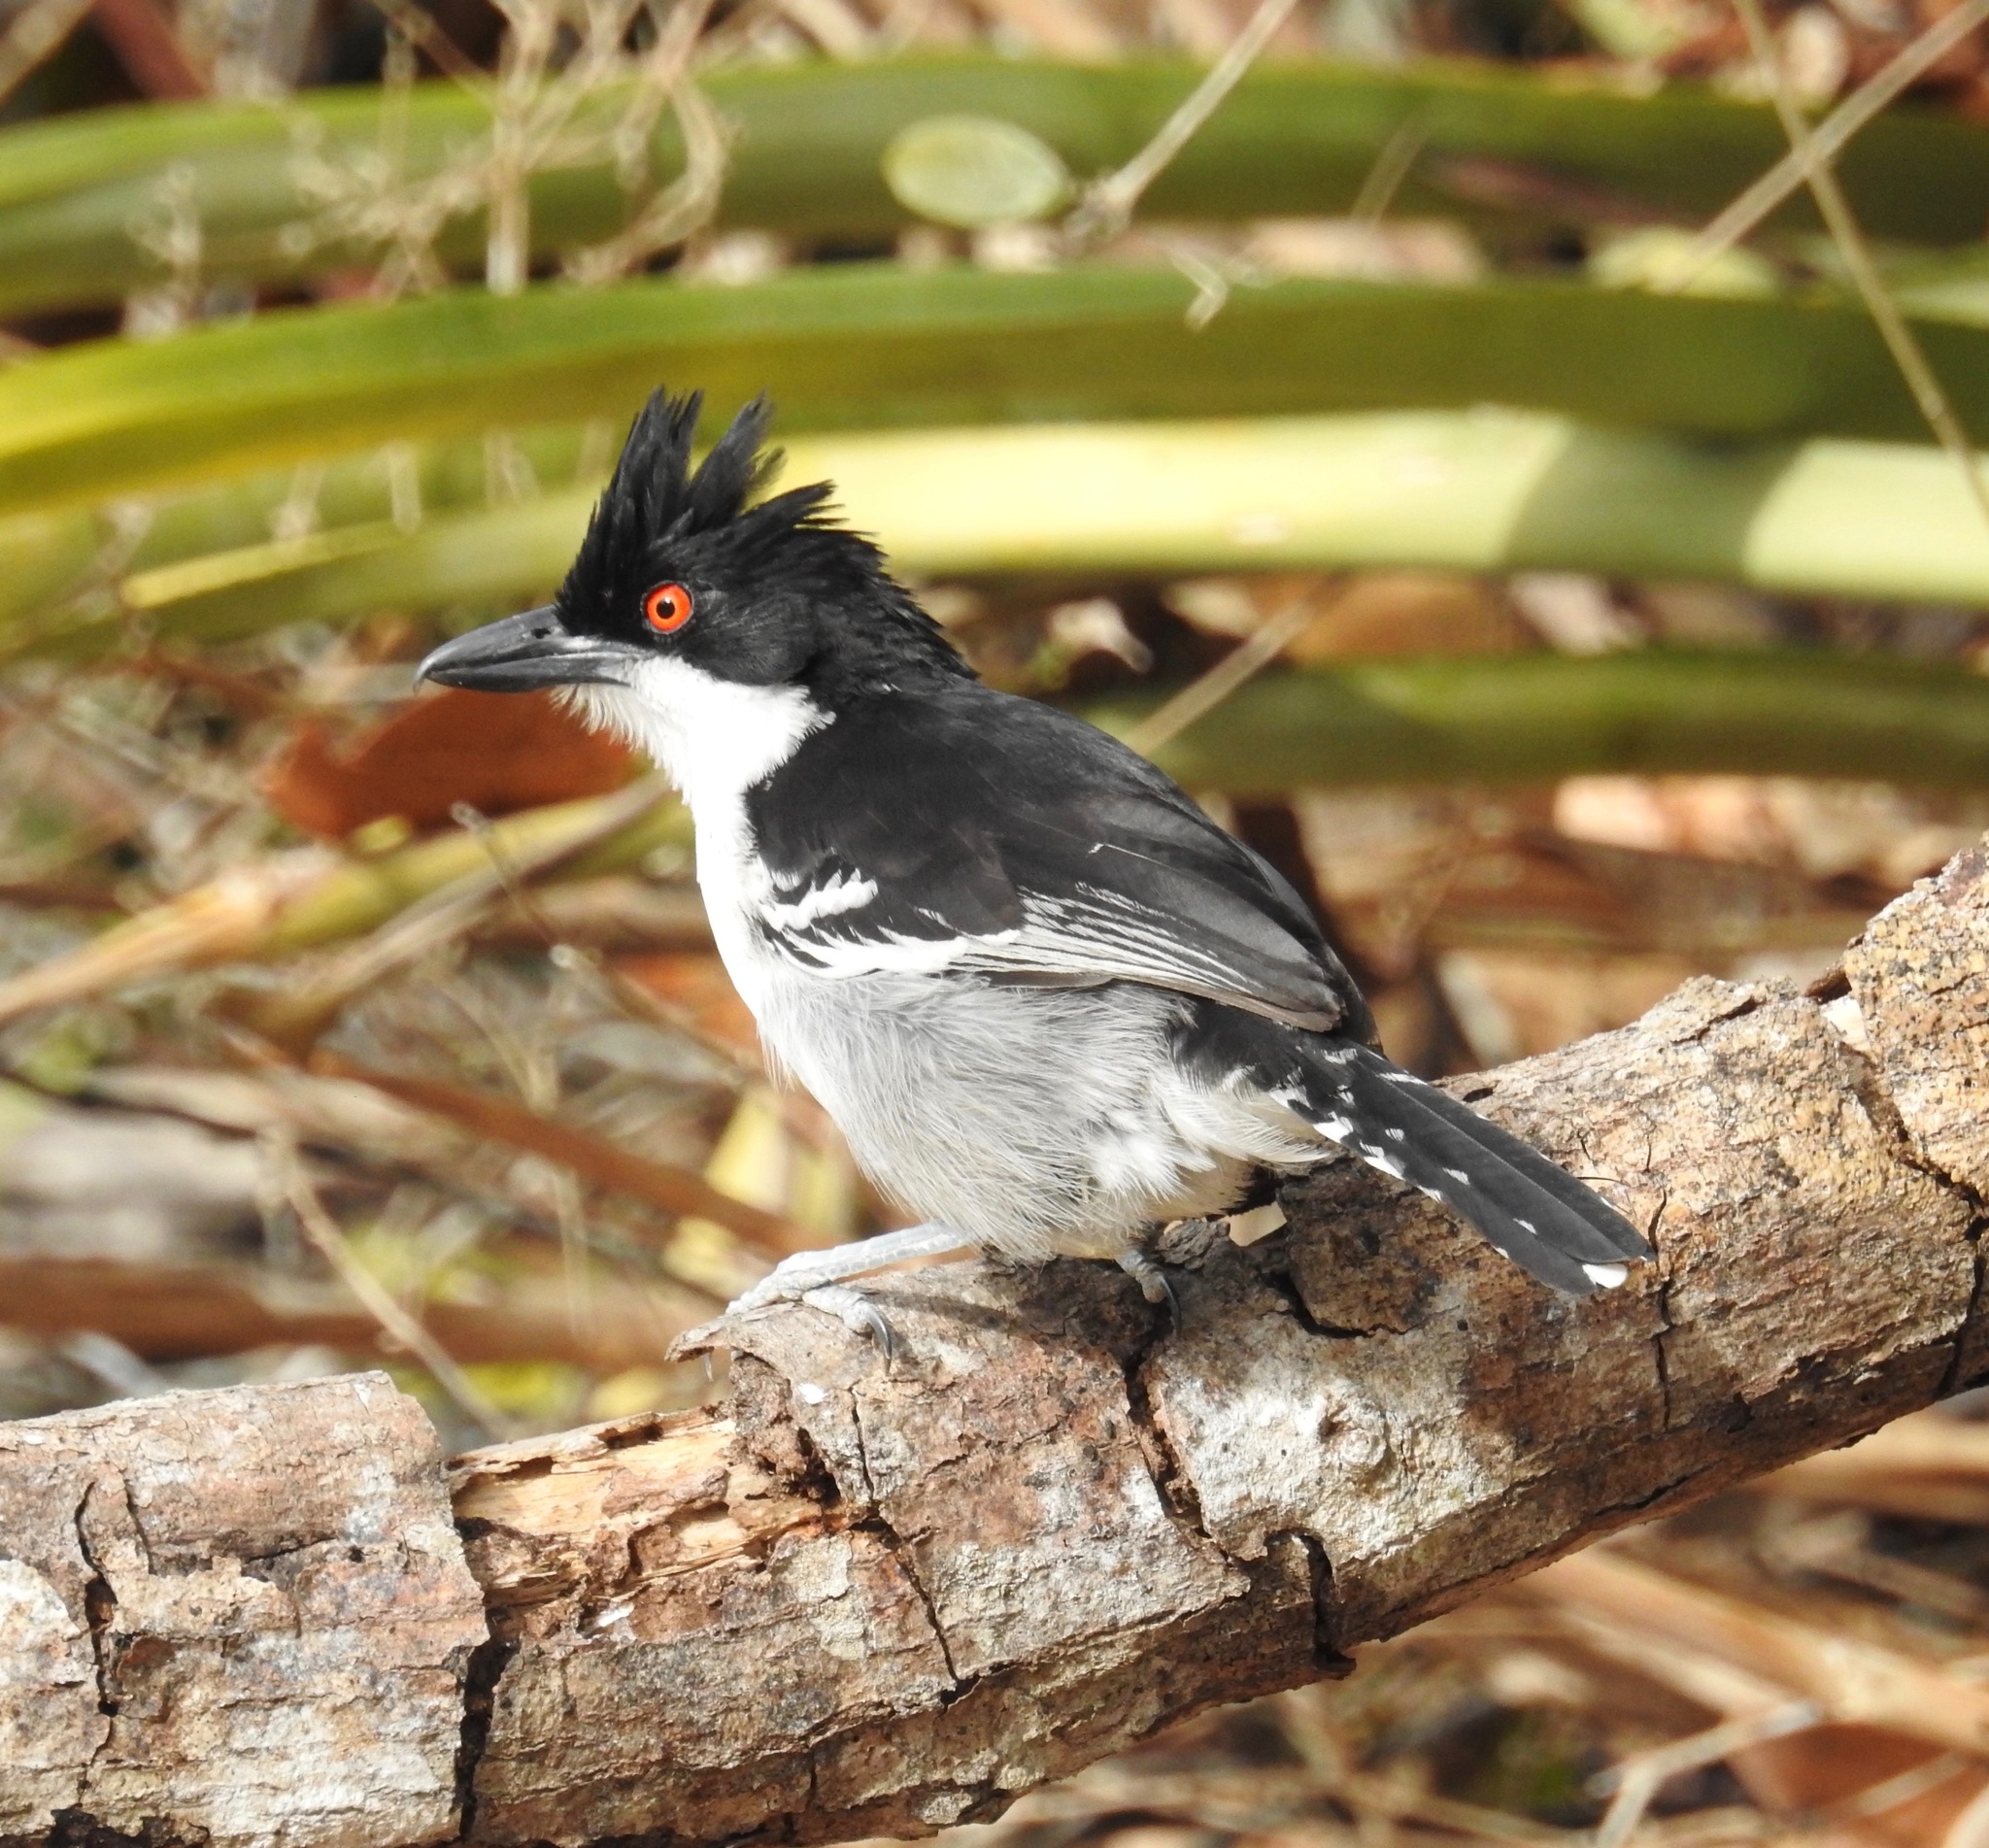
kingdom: Animalia
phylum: Chordata
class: Aves
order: Passeriformes
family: Thamnophilidae
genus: Taraba
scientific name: Taraba major
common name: Great antshrike
